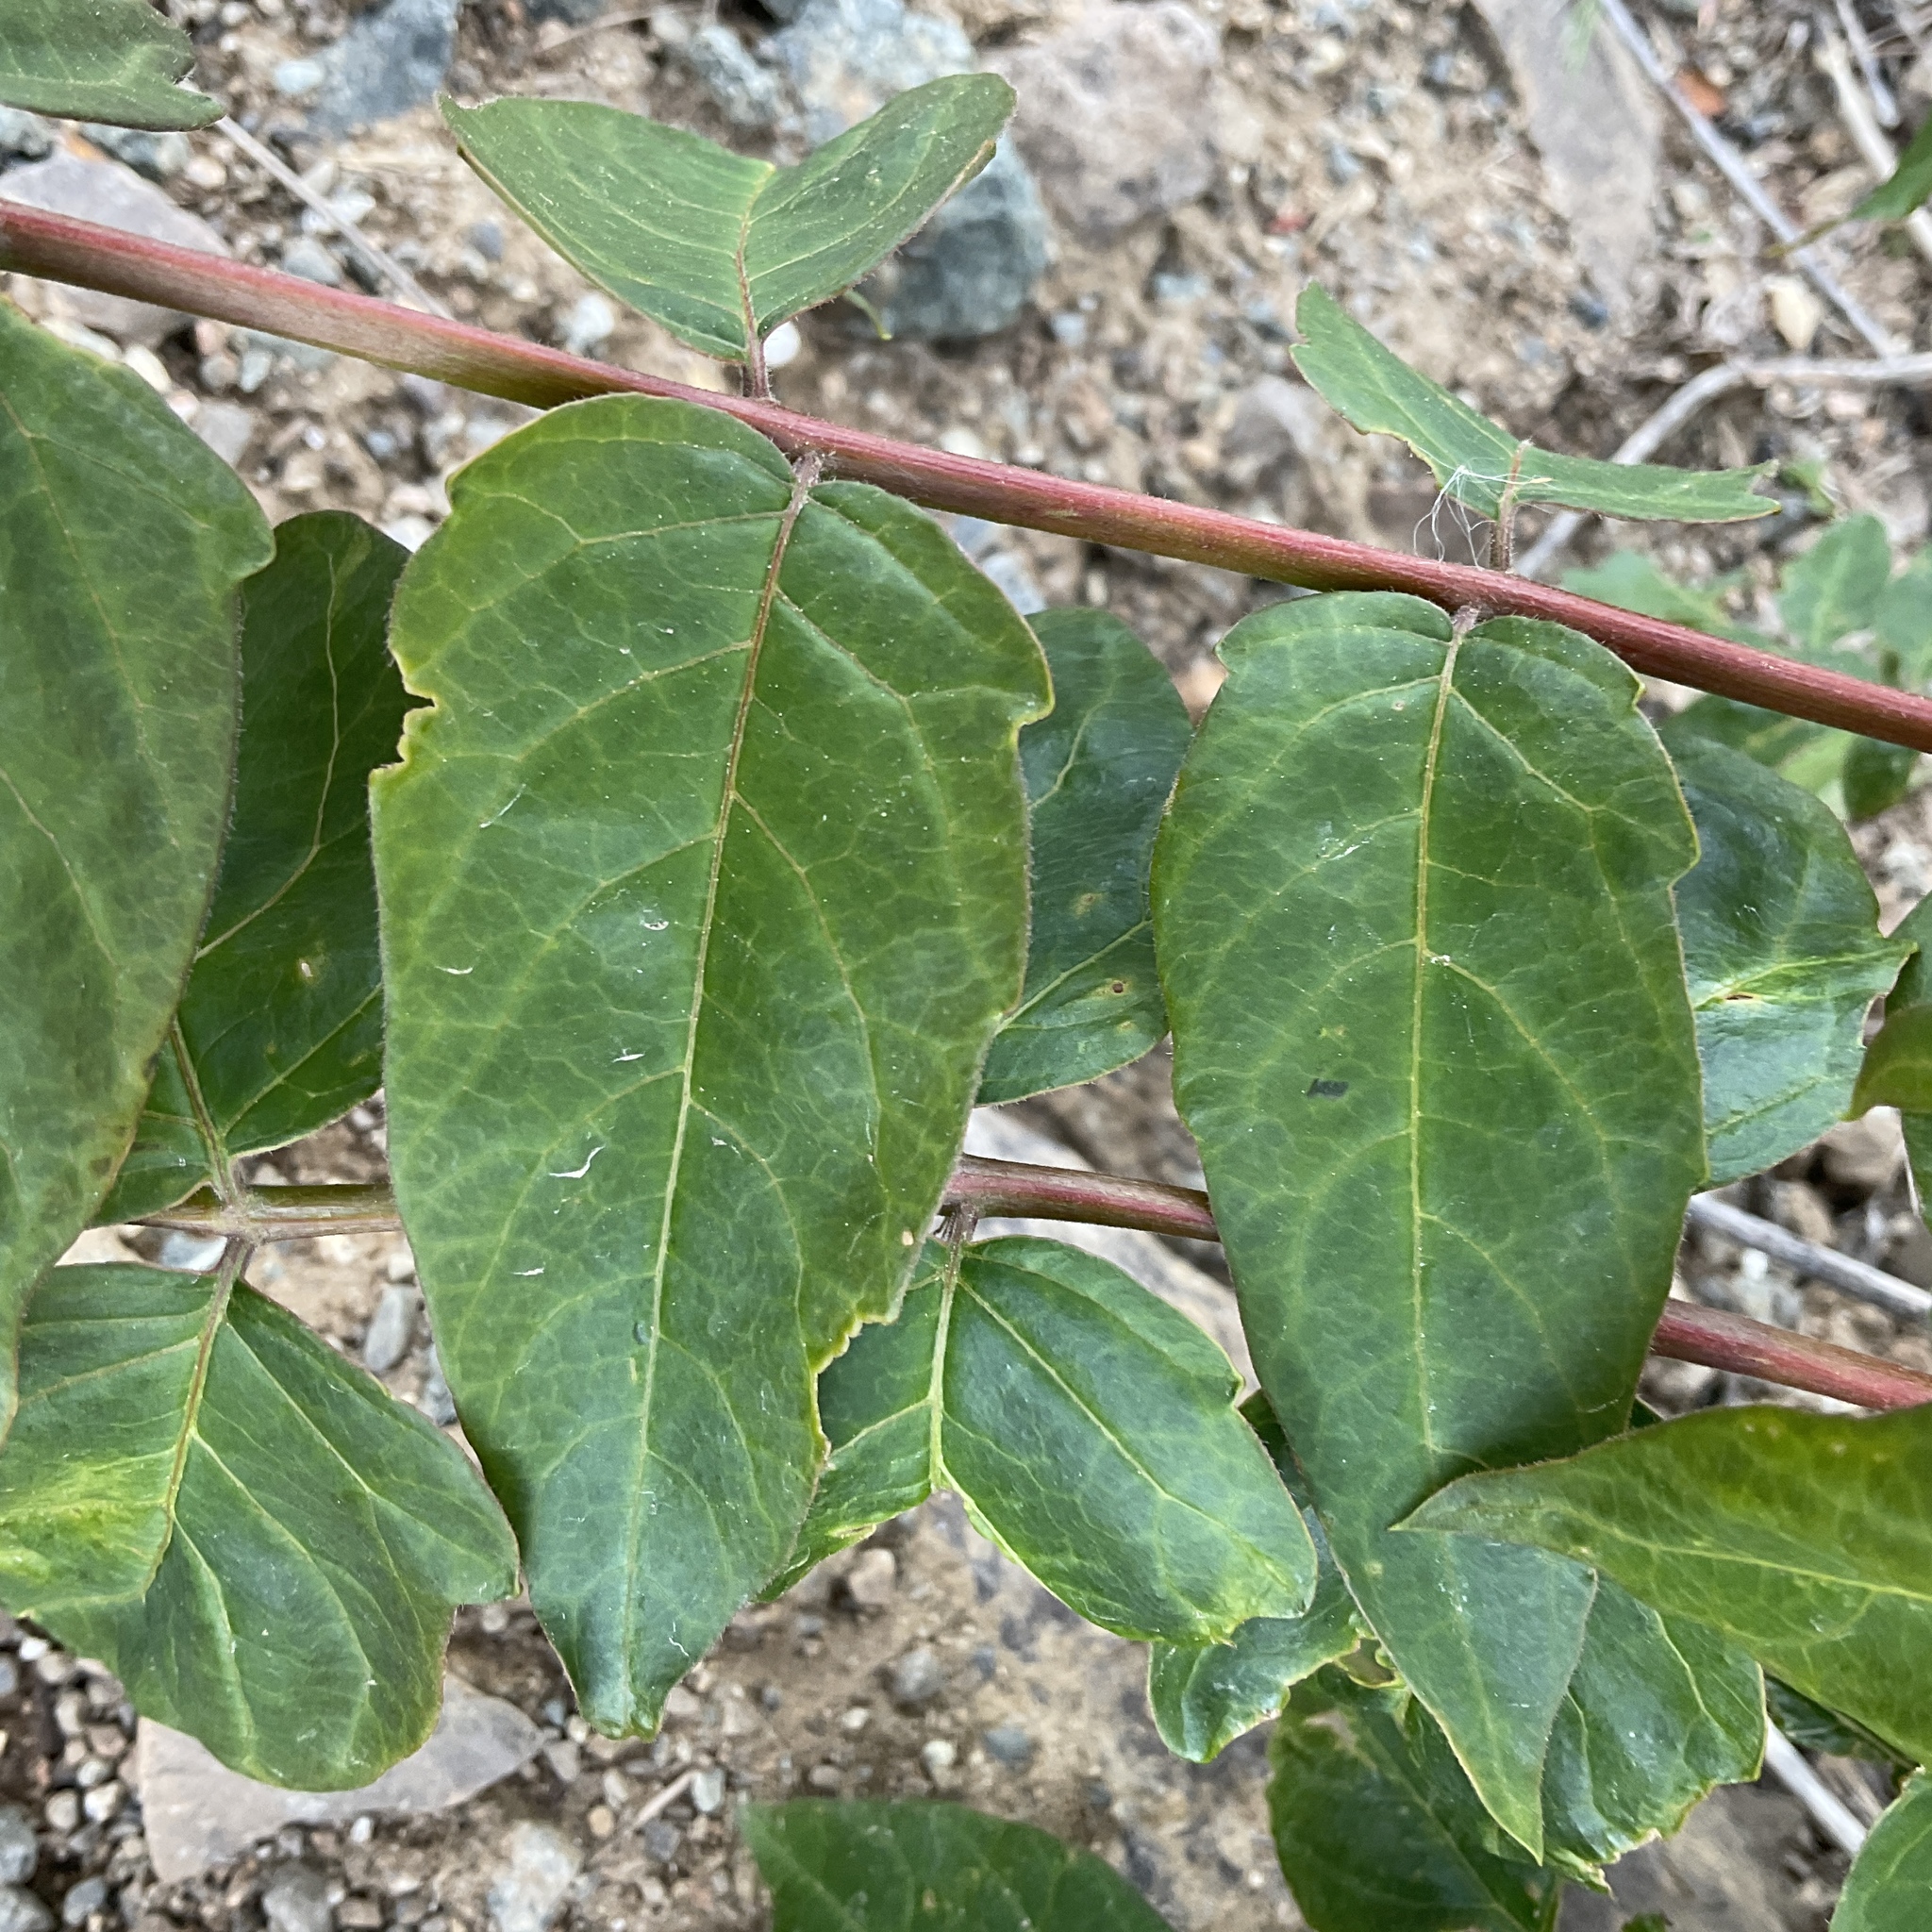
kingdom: Plantae
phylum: Tracheophyta
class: Magnoliopsida
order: Sapindales
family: Simaroubaceae
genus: Ailanthus
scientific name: Ailanthus altissima
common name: Tree-of-heaven
